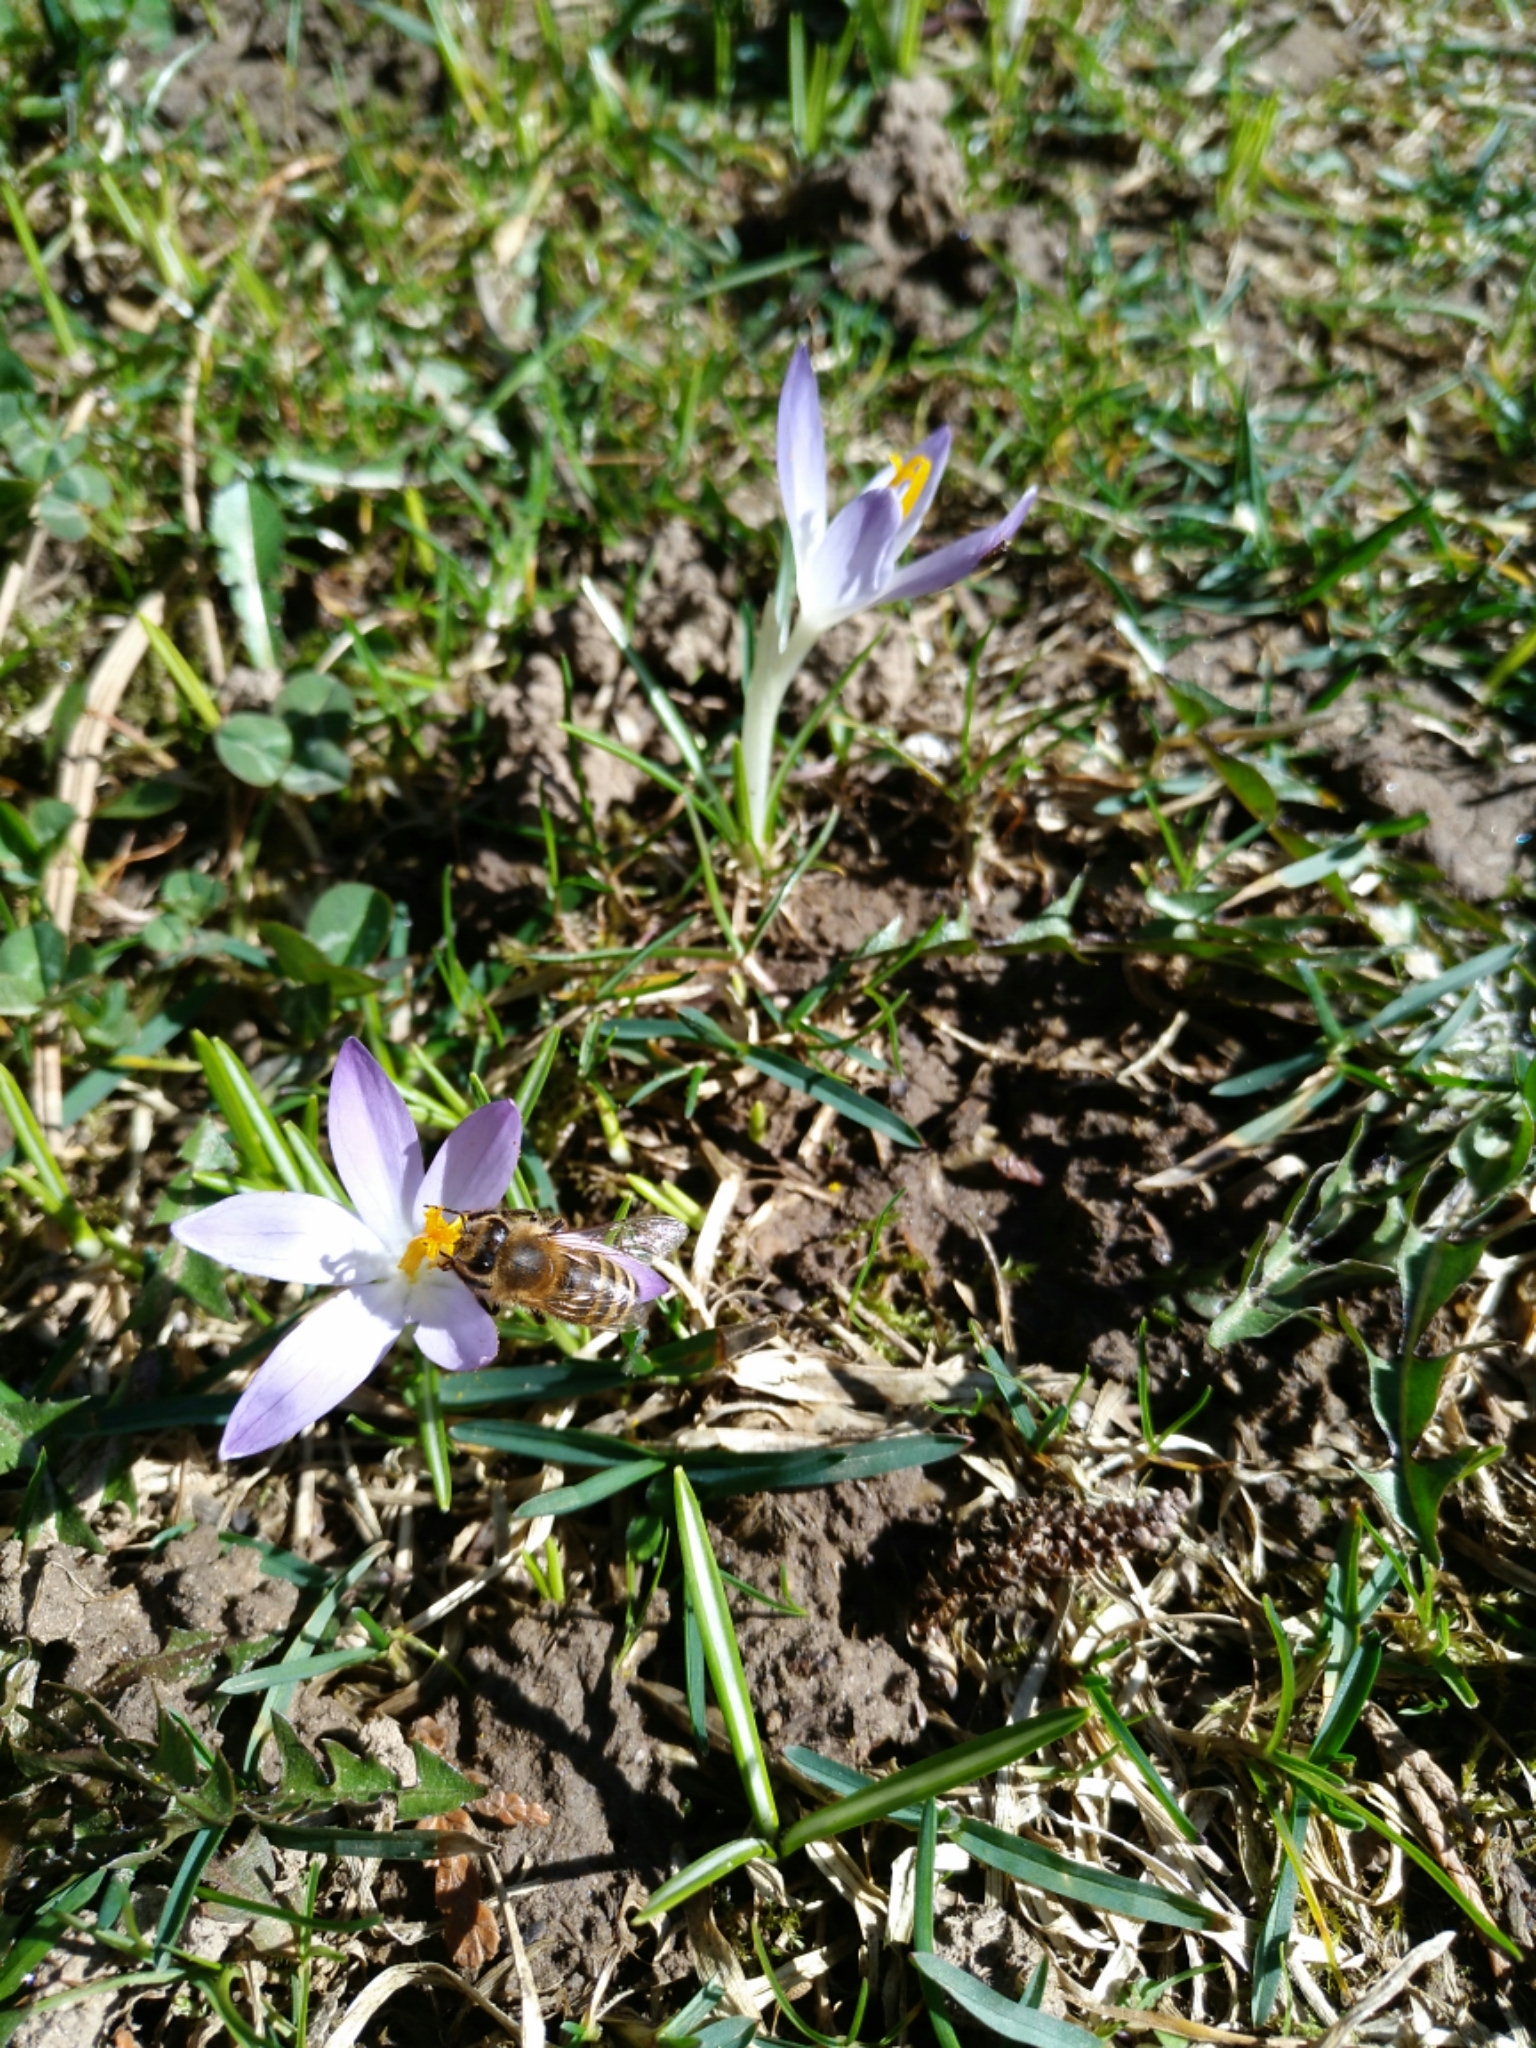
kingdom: Animalia
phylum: Arthropoda
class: Insecta
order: Hymenoptera
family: Apidae
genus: Apis
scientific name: Apis mellifera
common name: Honey bee
